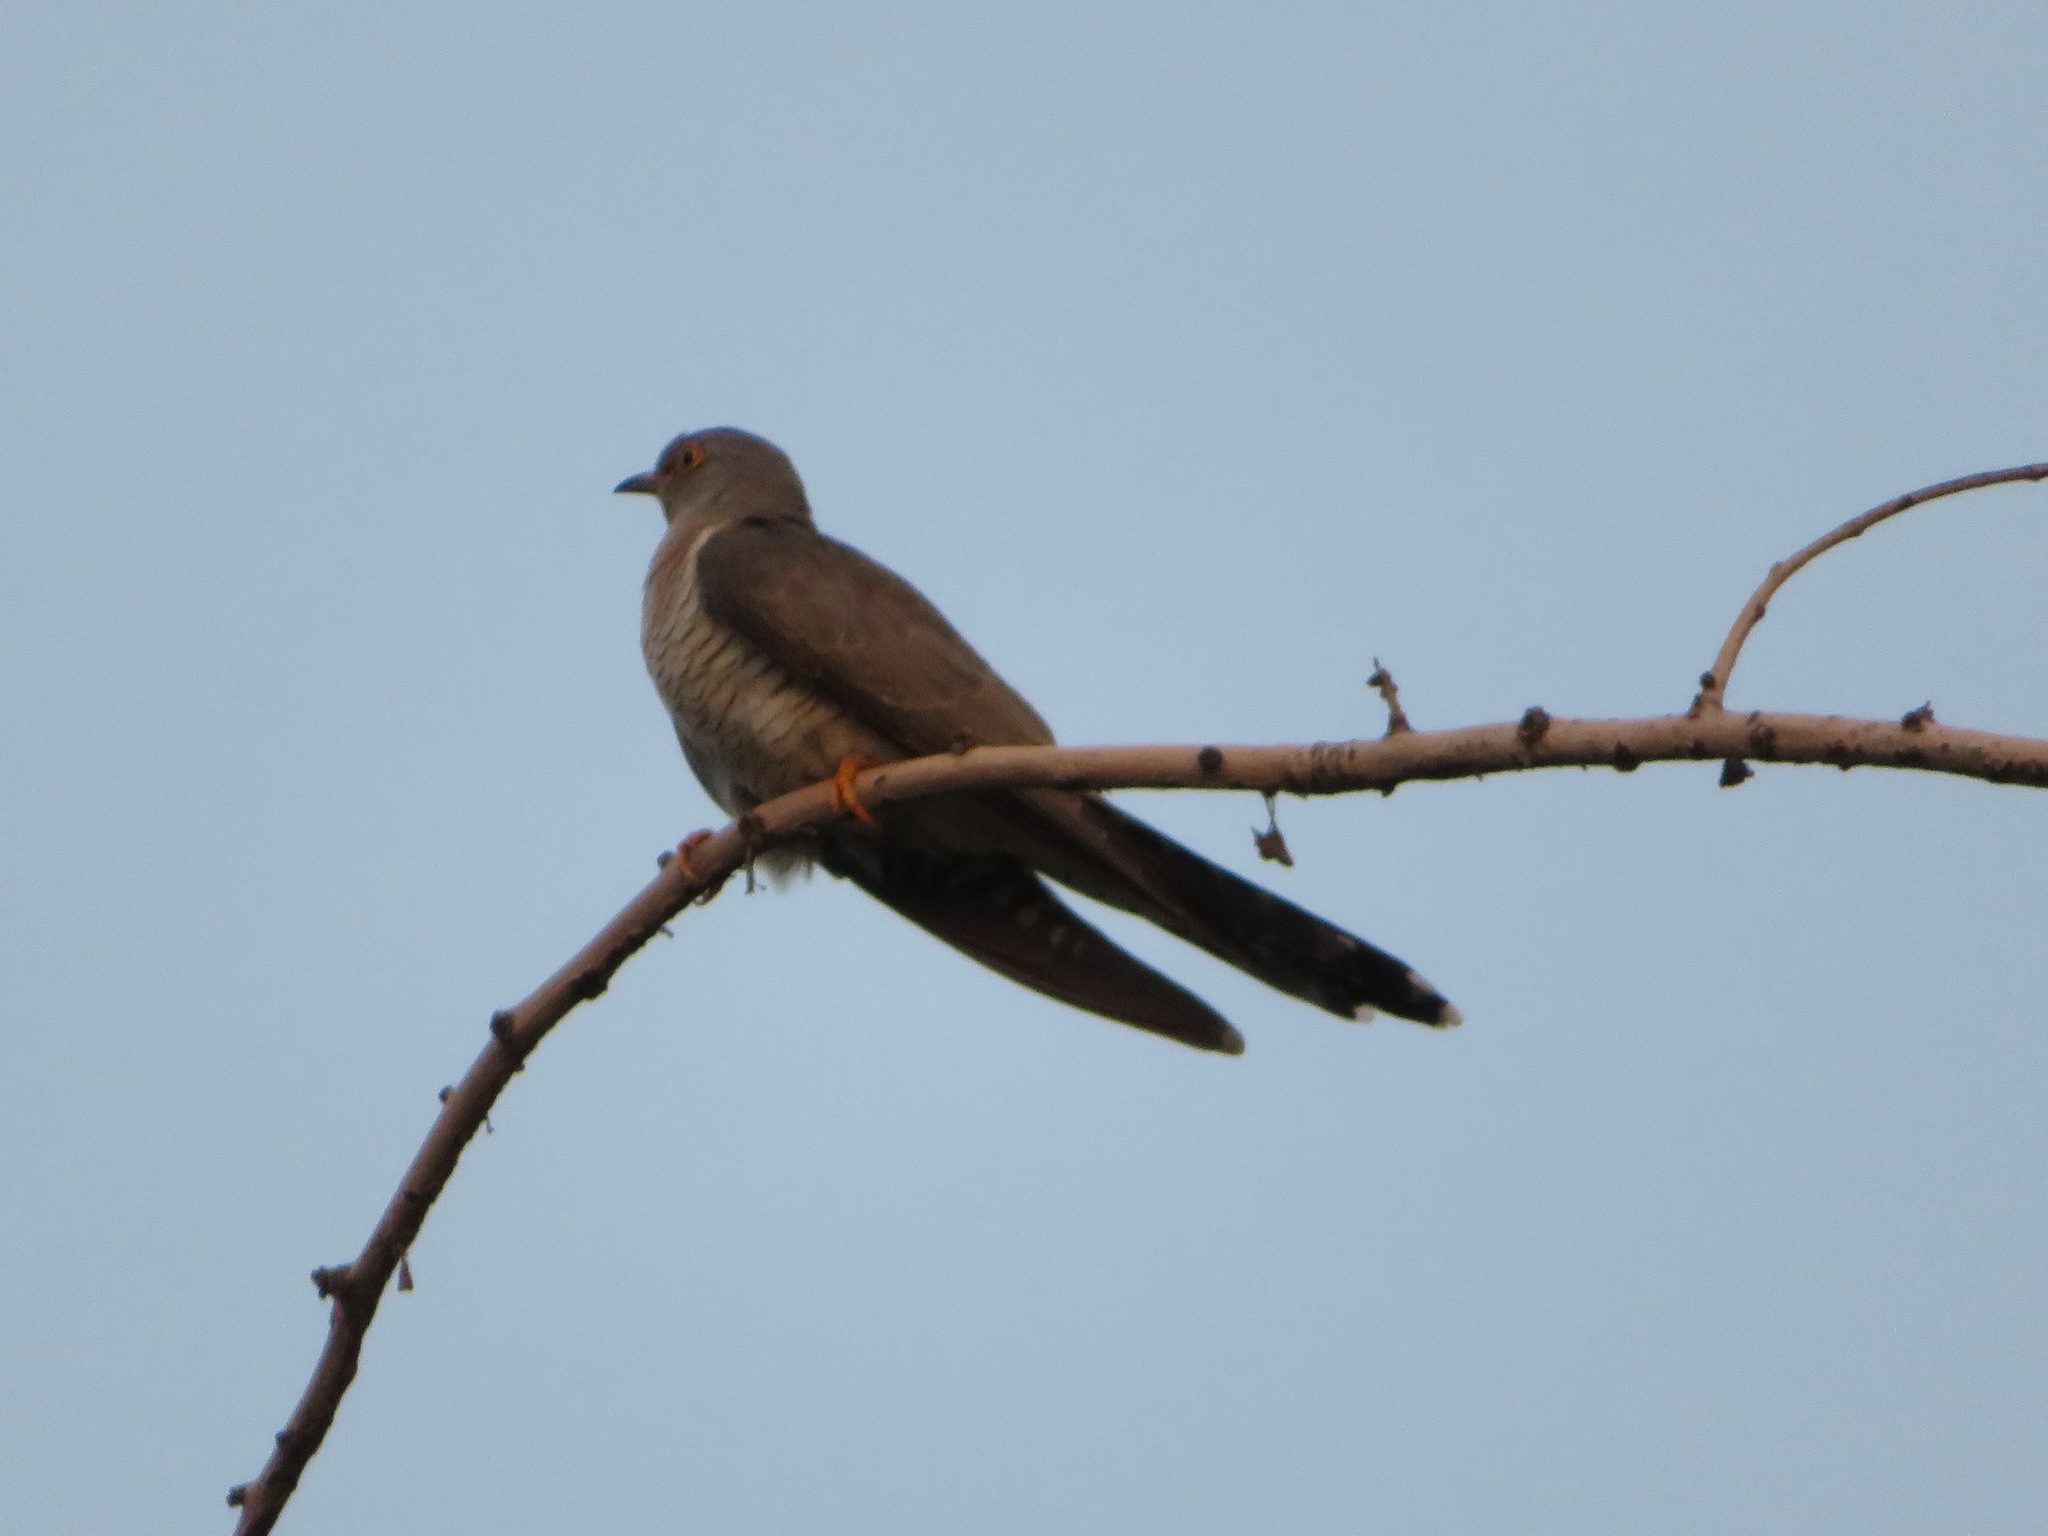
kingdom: Animalia
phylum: Chordata
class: Aves
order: Cuculiformes
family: Cuculidae
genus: Cuculus
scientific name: Cuculus canorus
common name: Common cuckoo
